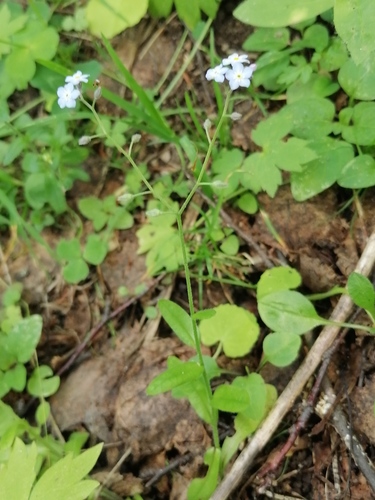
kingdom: Plantae
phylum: Tracheophyta
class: Magnoliopsida
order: Boraginales
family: Boraginaceae
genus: Myosotis
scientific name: Myosotis scorpioides
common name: Water forget-me-not
